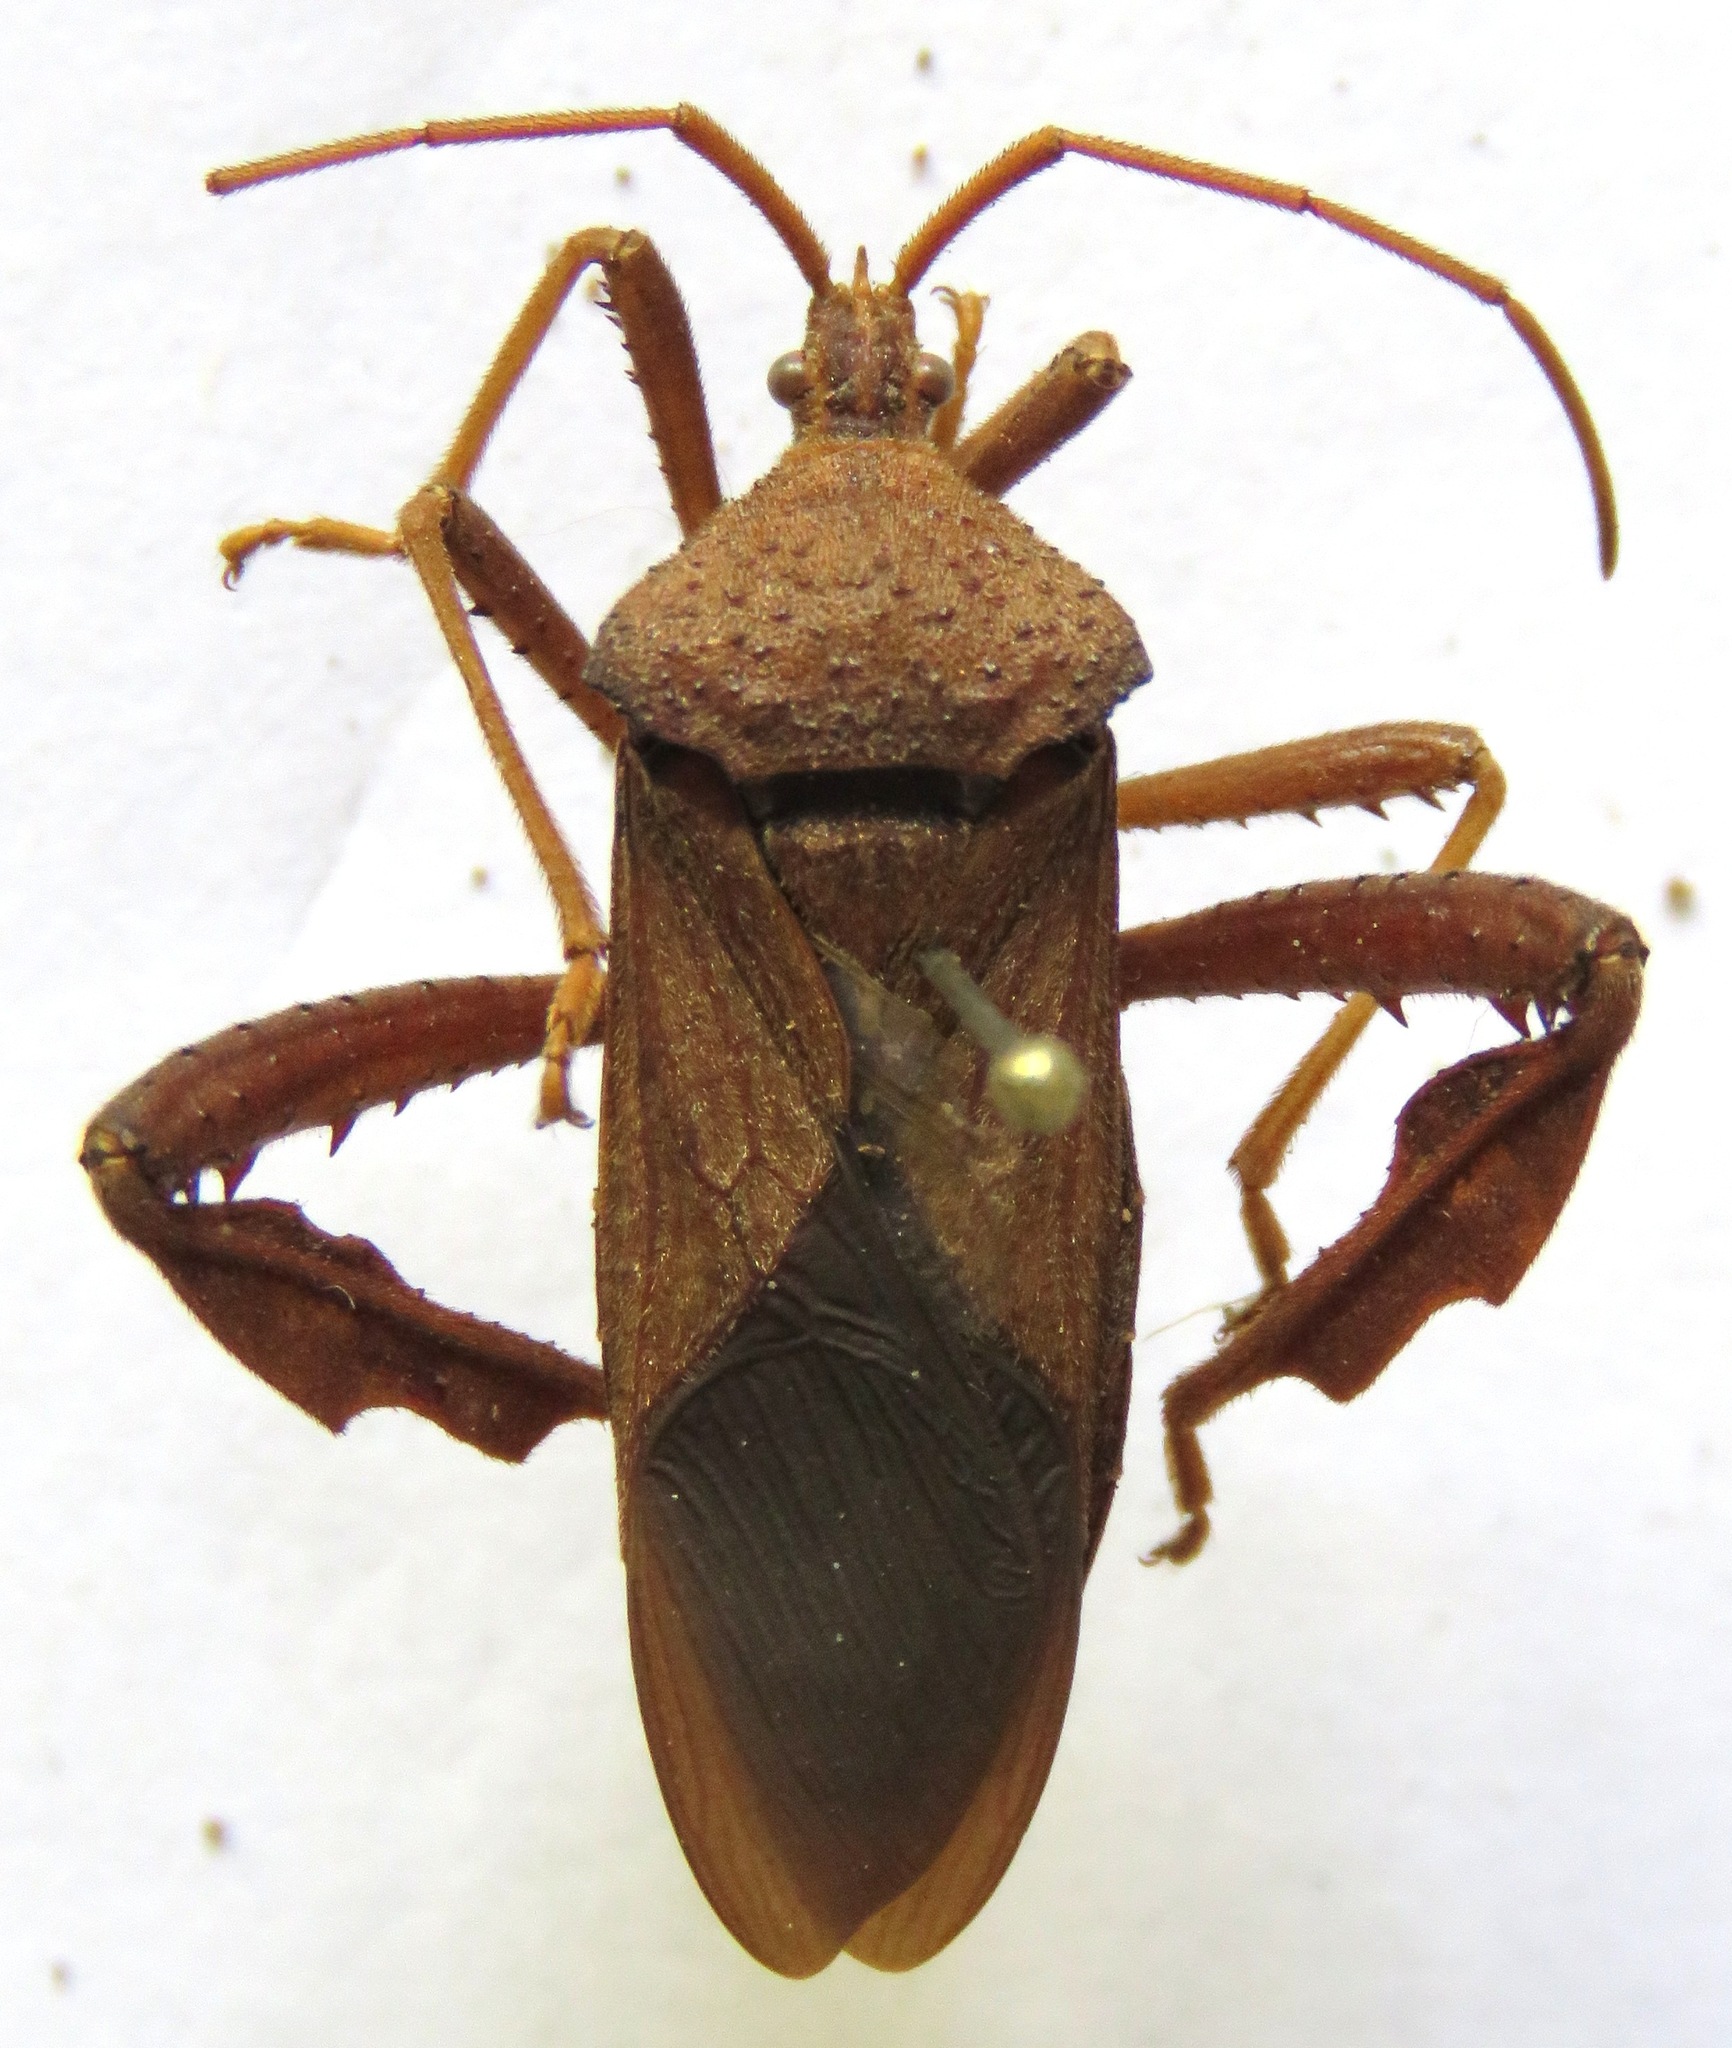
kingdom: Animalia
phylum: Arthropoda
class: Insecta
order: Hemiptera
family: Coreidae
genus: Acanthocephala
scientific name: Acanthocephala femorata
